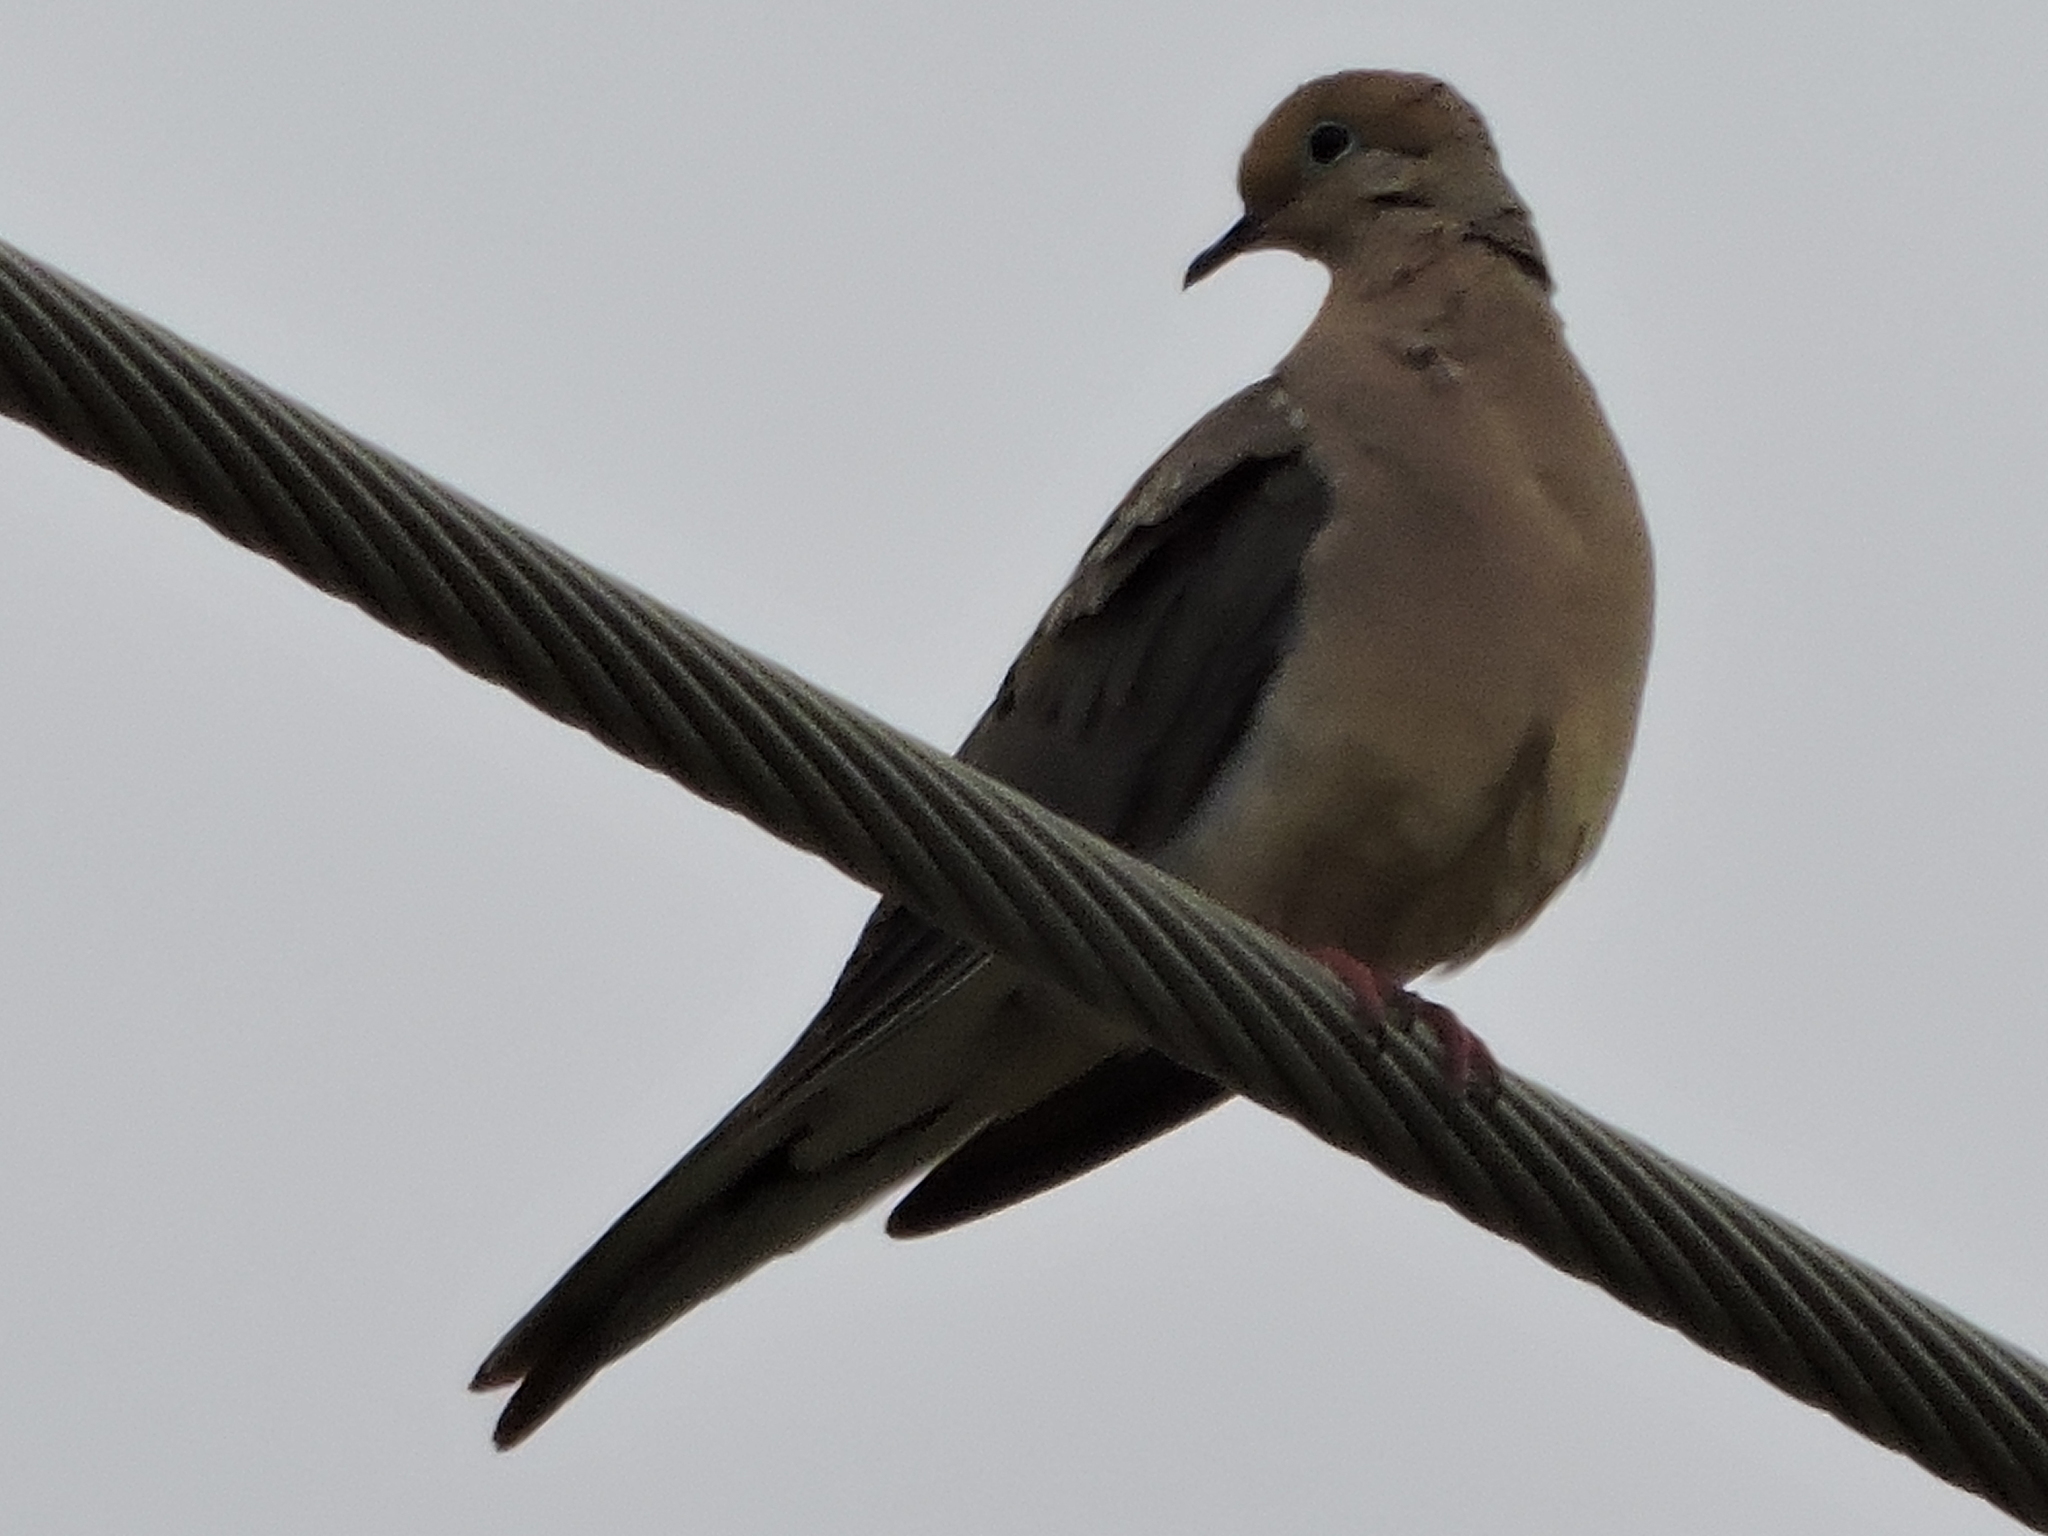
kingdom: Animalia
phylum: Chordata
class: Aves
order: Columbiformes
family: Columbidae
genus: Zenaida
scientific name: Zenaida macroura
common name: Mourning dove
